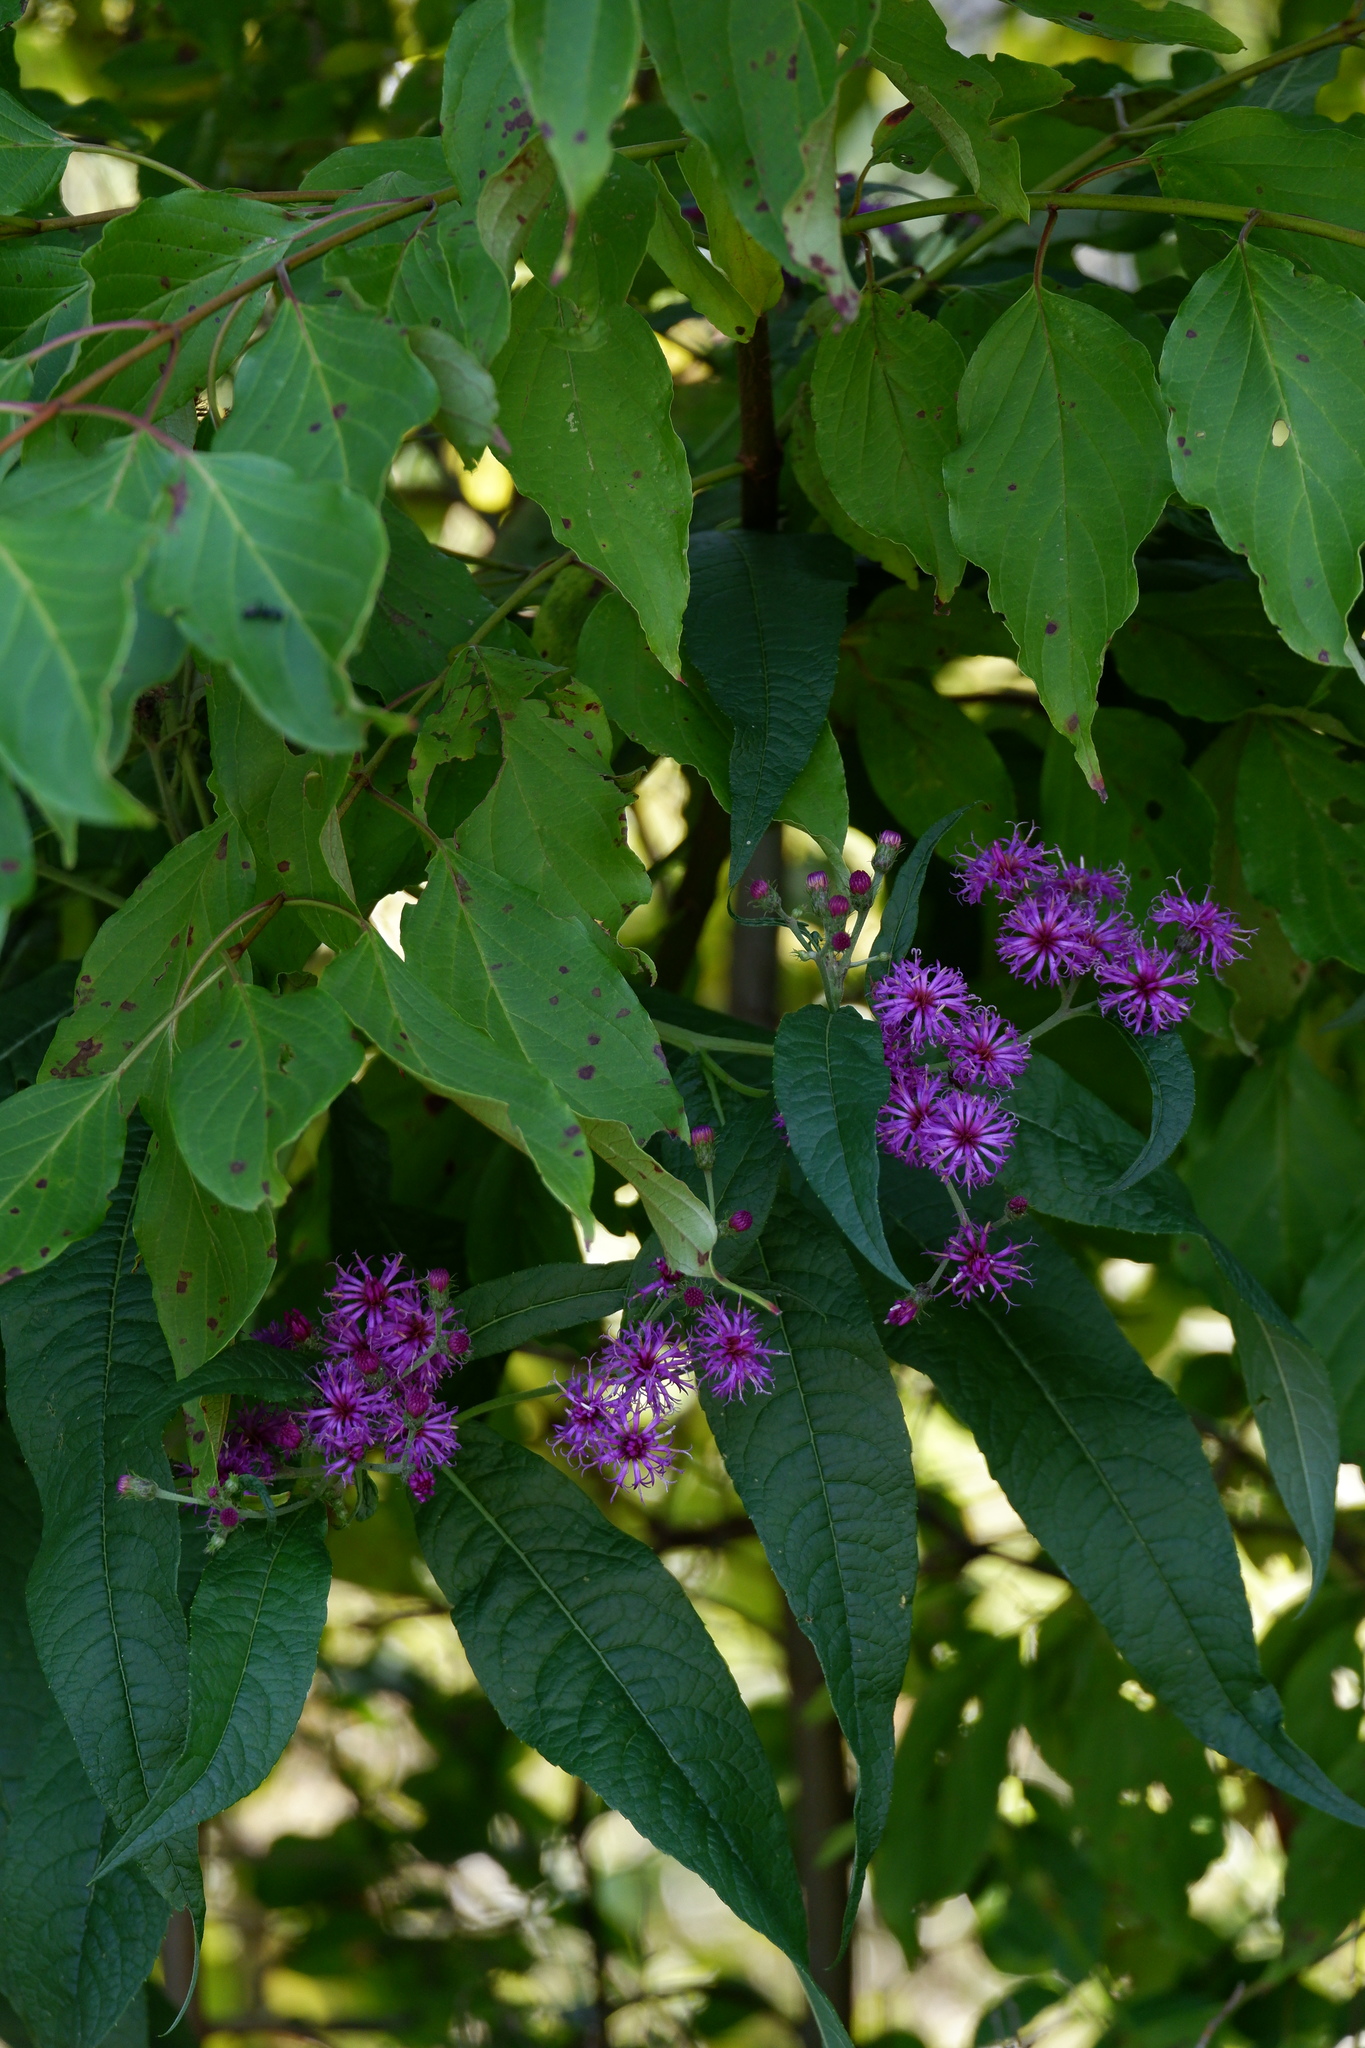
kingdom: Plantae
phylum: Tracheophyta
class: Magnoliopsida
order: Asterales
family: Asteraceae
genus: Vernonia
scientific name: Vernonia noveboracensis
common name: New york ironweed
